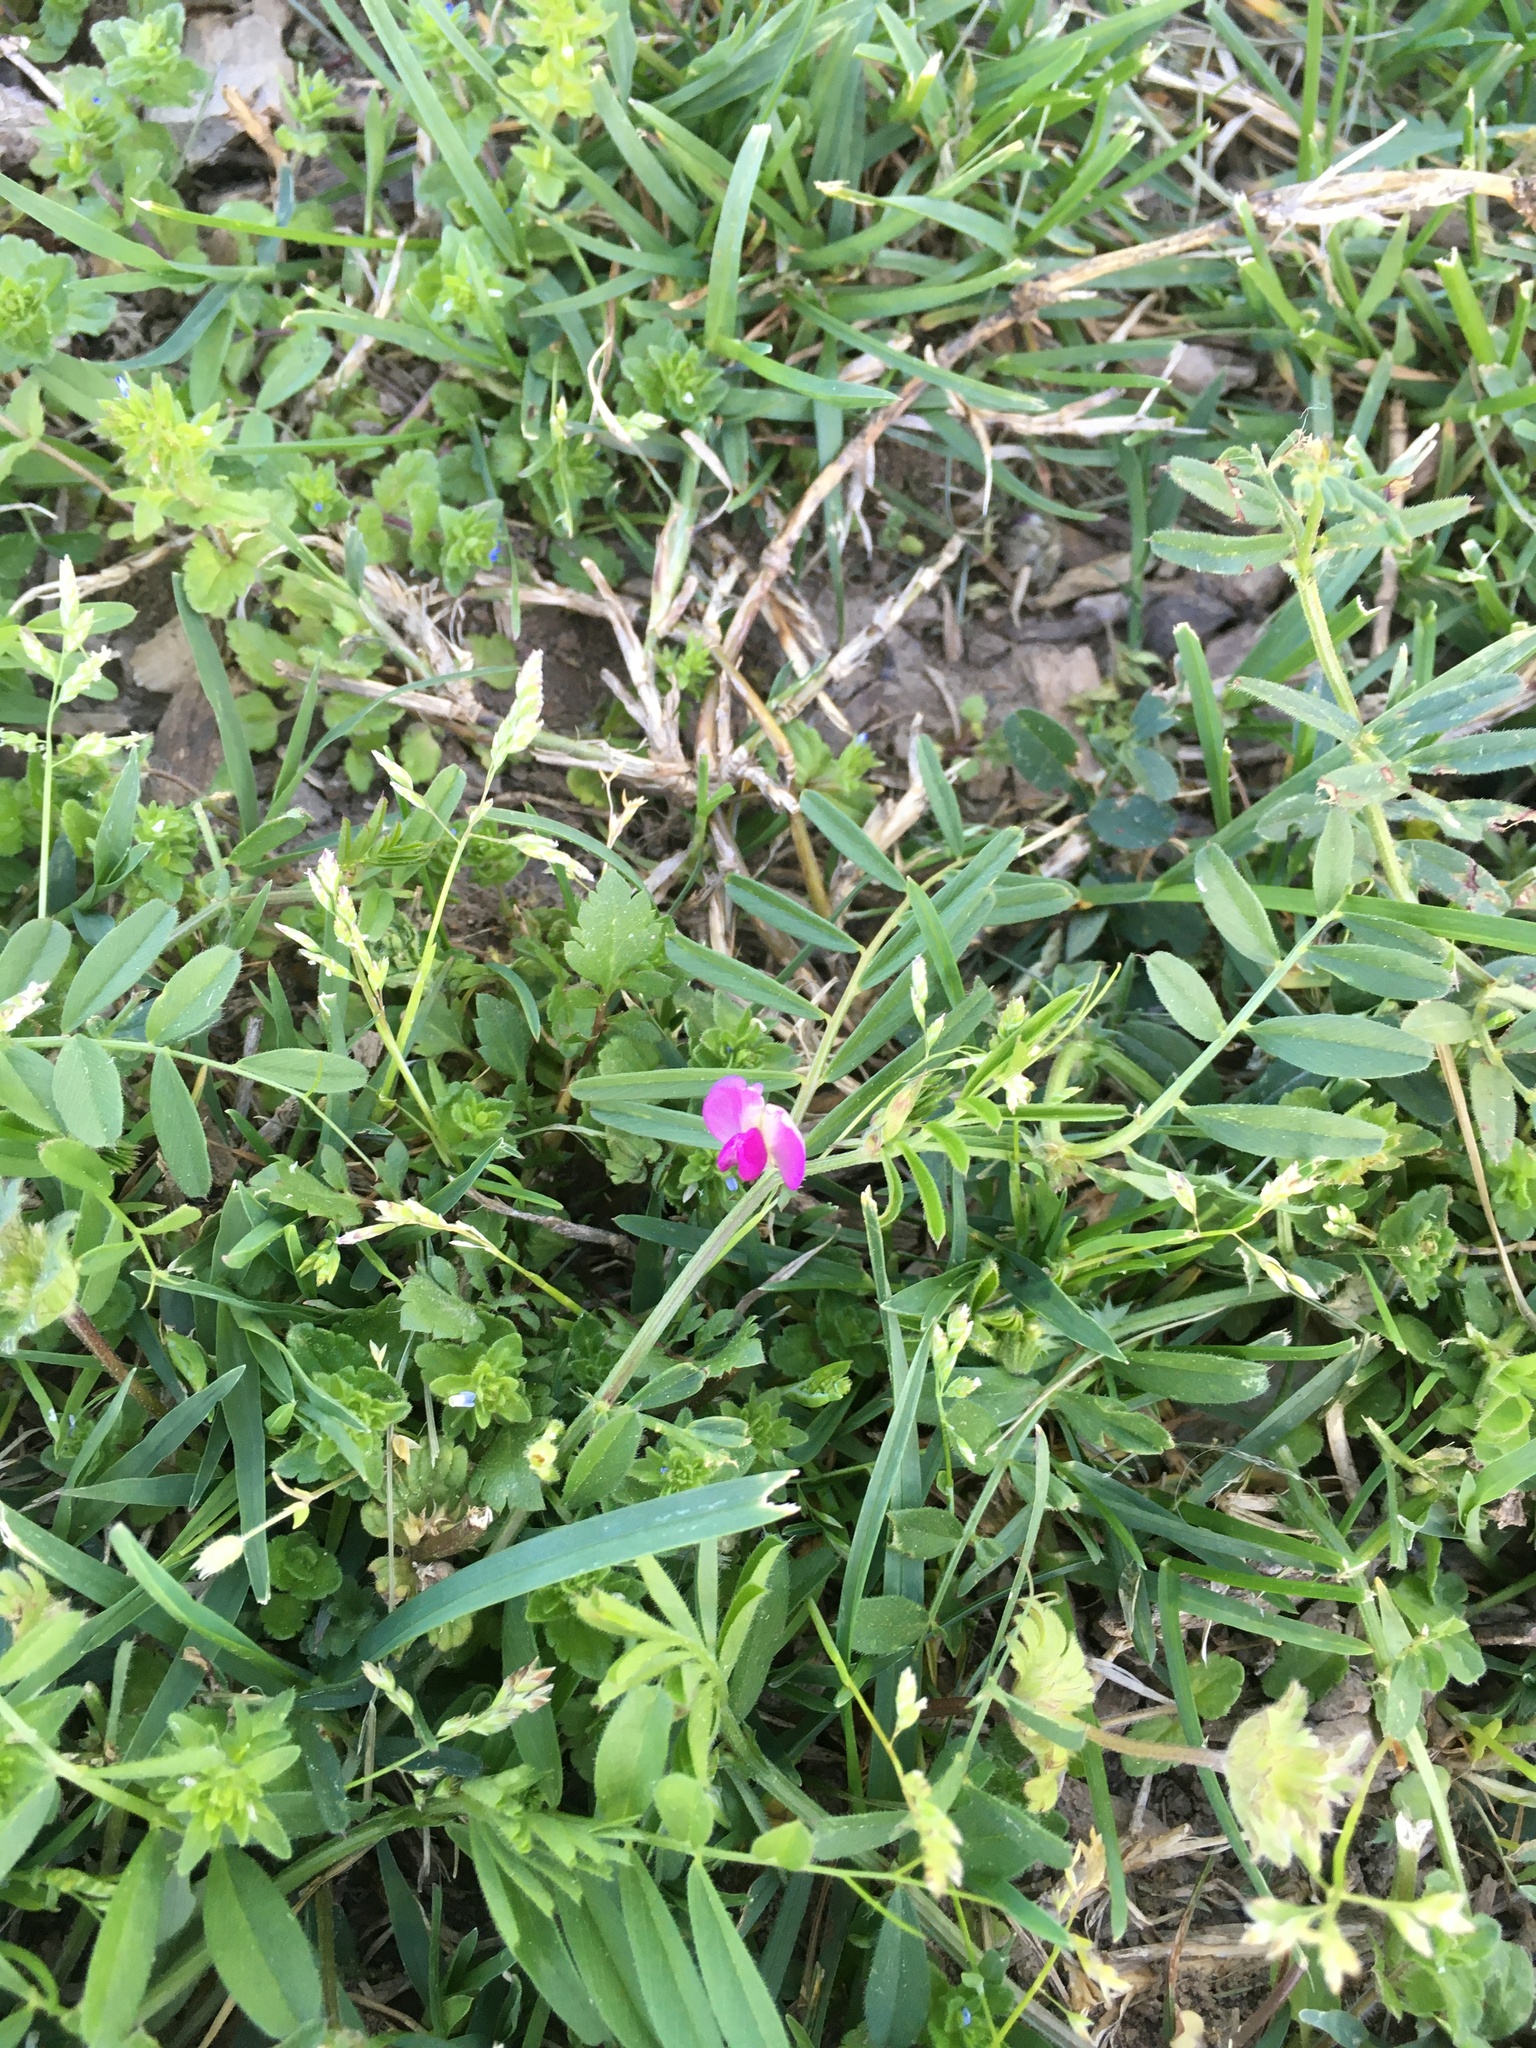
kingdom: Plantae
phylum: Tracheophyta
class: Magnoliopsida
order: Fabales
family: Fabaceae
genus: Vicia
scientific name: Vicia sativa
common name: Garden vetch
